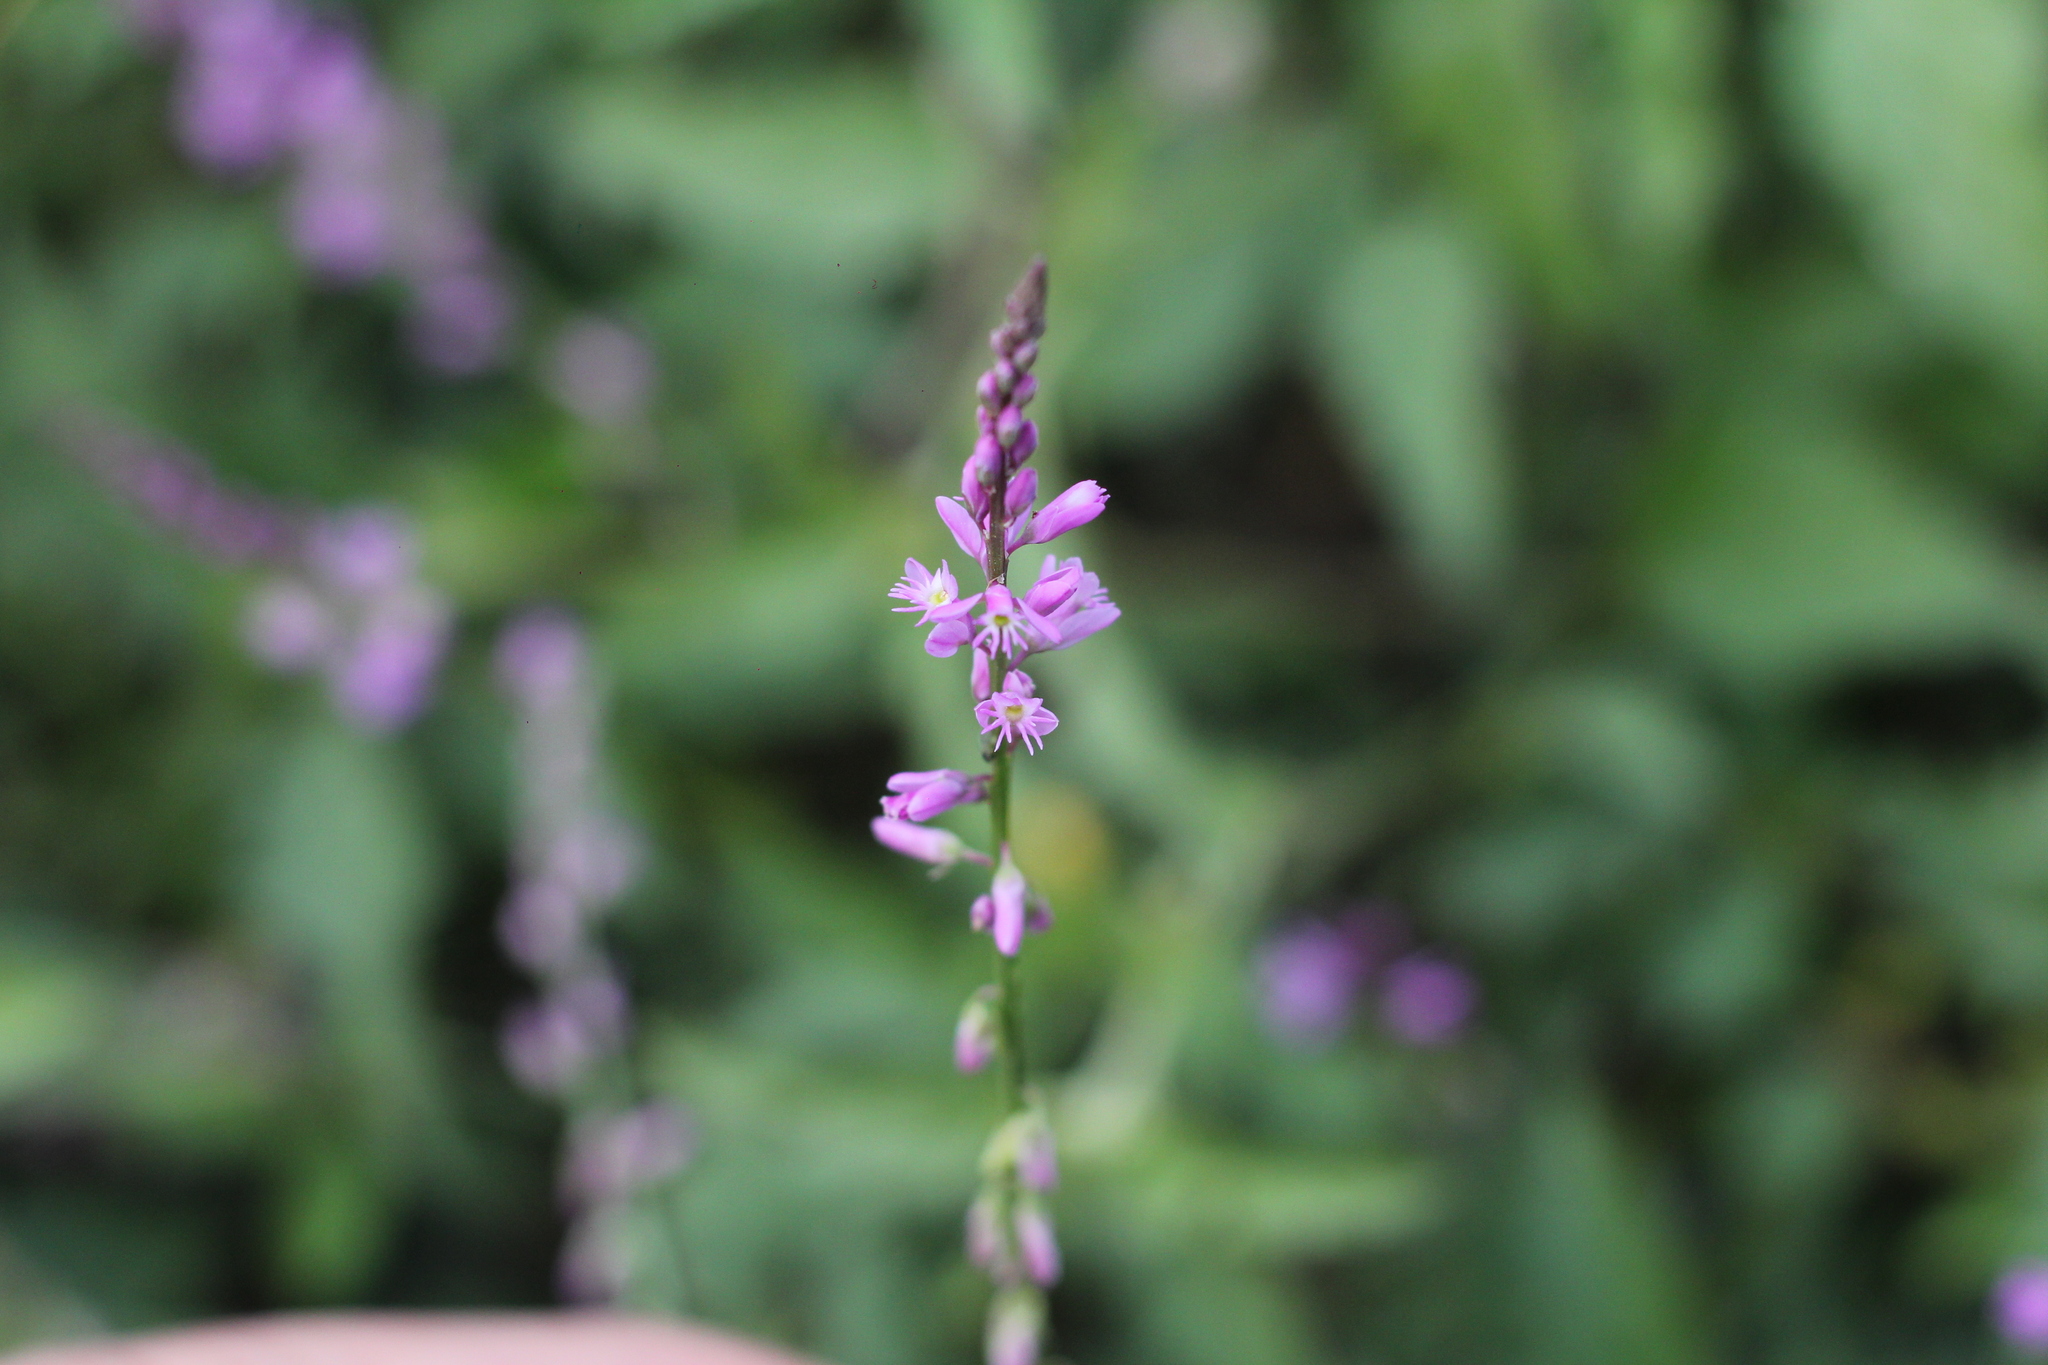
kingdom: Plantae
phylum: Tracheophyta
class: Magnoliopsida
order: Fabales
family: Polygalaceae
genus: Polygala
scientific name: Polygala molluginifolia
